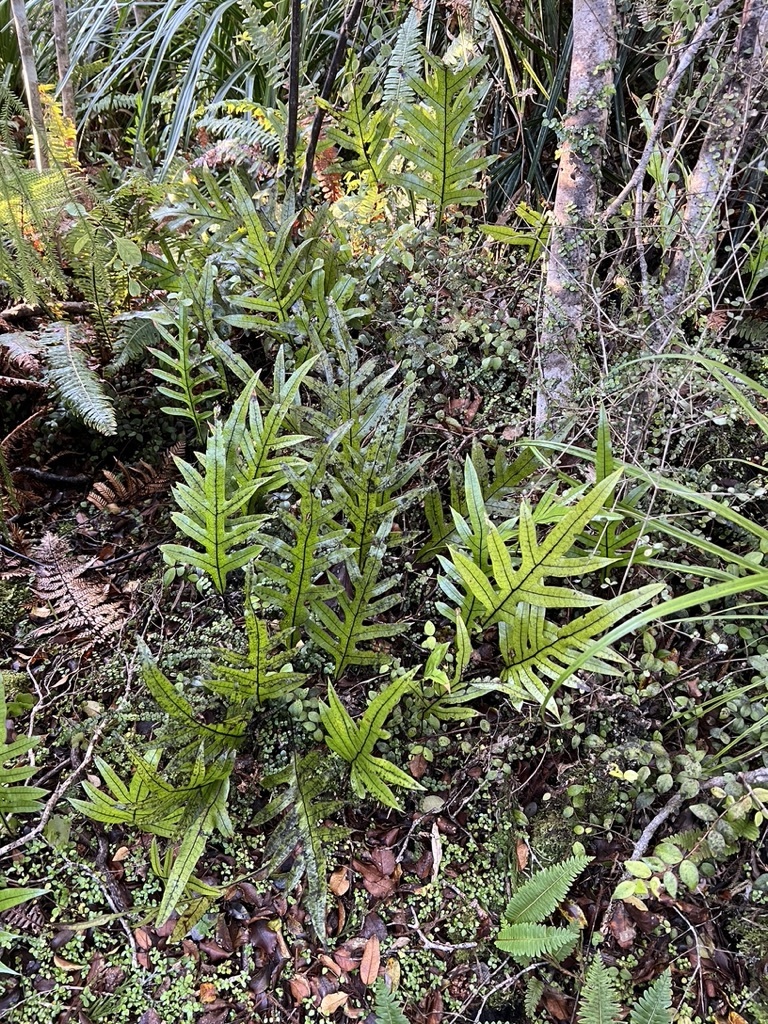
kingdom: Plantae
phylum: Tracheophyta
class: Polypodiopsida
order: Polypodiales
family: Polypodiaceae
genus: Lecanopteris
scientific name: Lecanopteris pustulata
